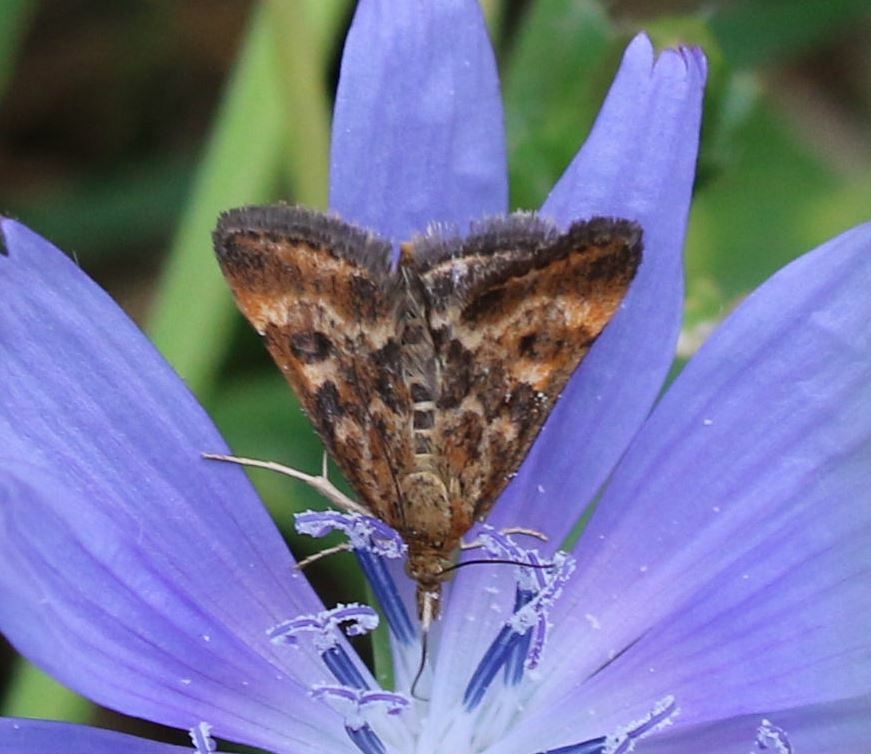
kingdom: Animalia
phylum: Arthropoda
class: Insecta
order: Lepidoptera
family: Crambidae
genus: Pyrausta
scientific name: Pyrausta despicata
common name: Straw-barred pearl
